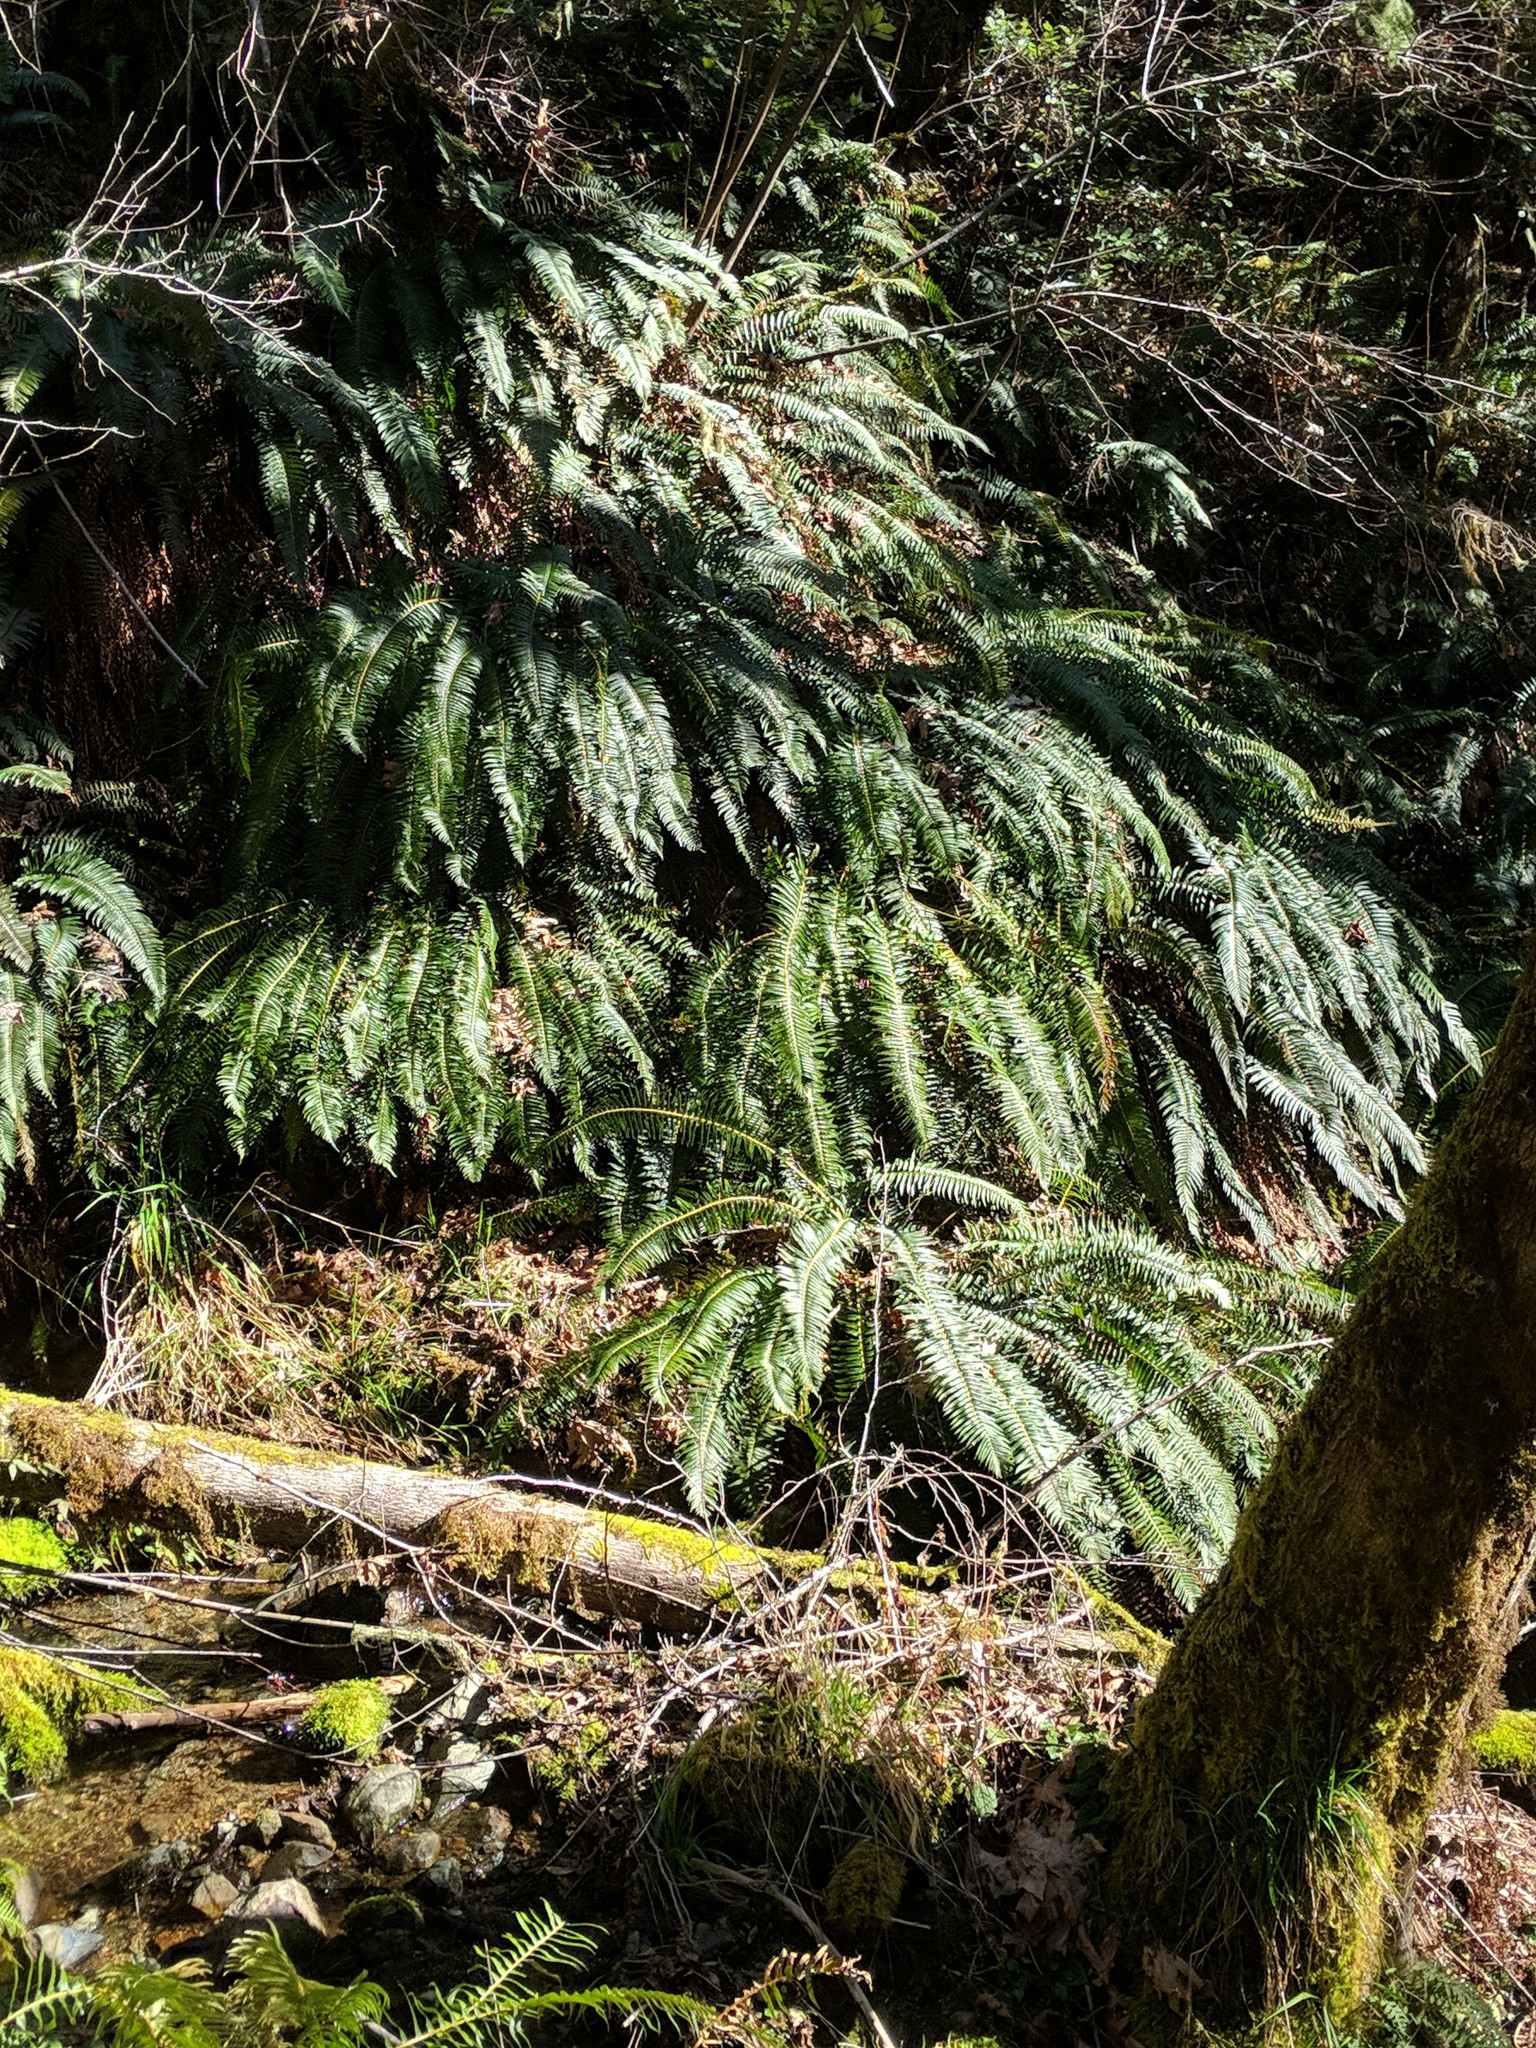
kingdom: Plantae
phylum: Tracheophyta
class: Polypodiopsida
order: Polypodiales
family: Dryopteridaceae
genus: Polystichum
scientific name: Polystichum munitum
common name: Western sword-fern
